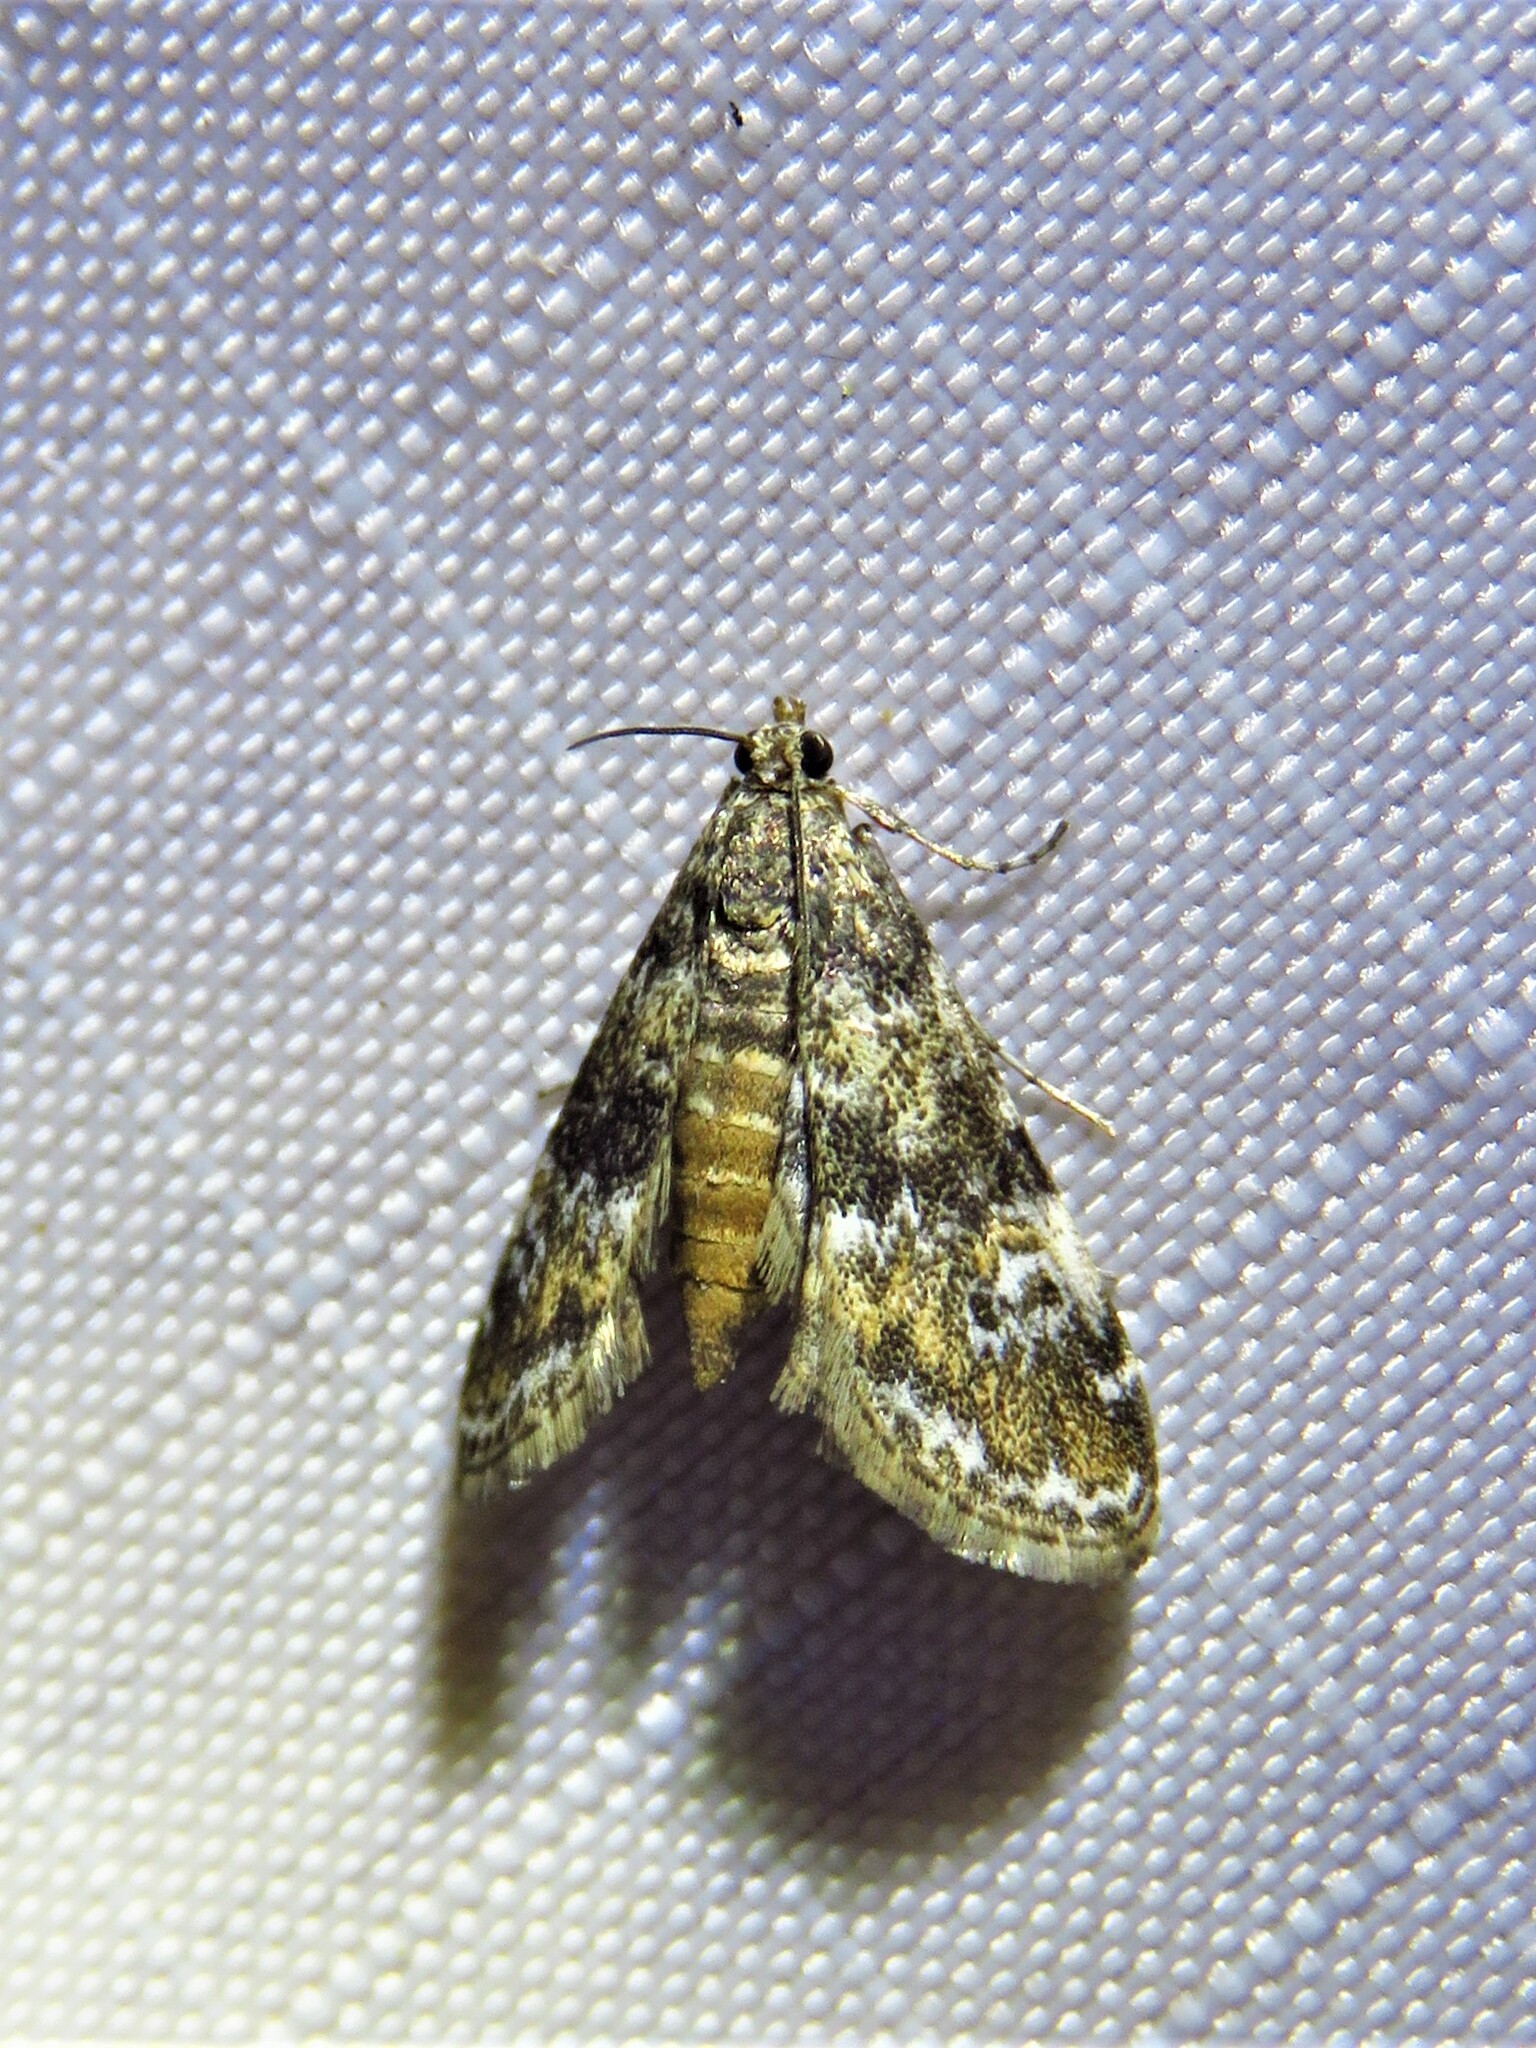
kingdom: Animalia
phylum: Arthropoda
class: Insecta
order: Lepidoptera
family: Crambidae
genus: Elophila
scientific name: Elophila obliteralis
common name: Waterlily leafcutter moth
